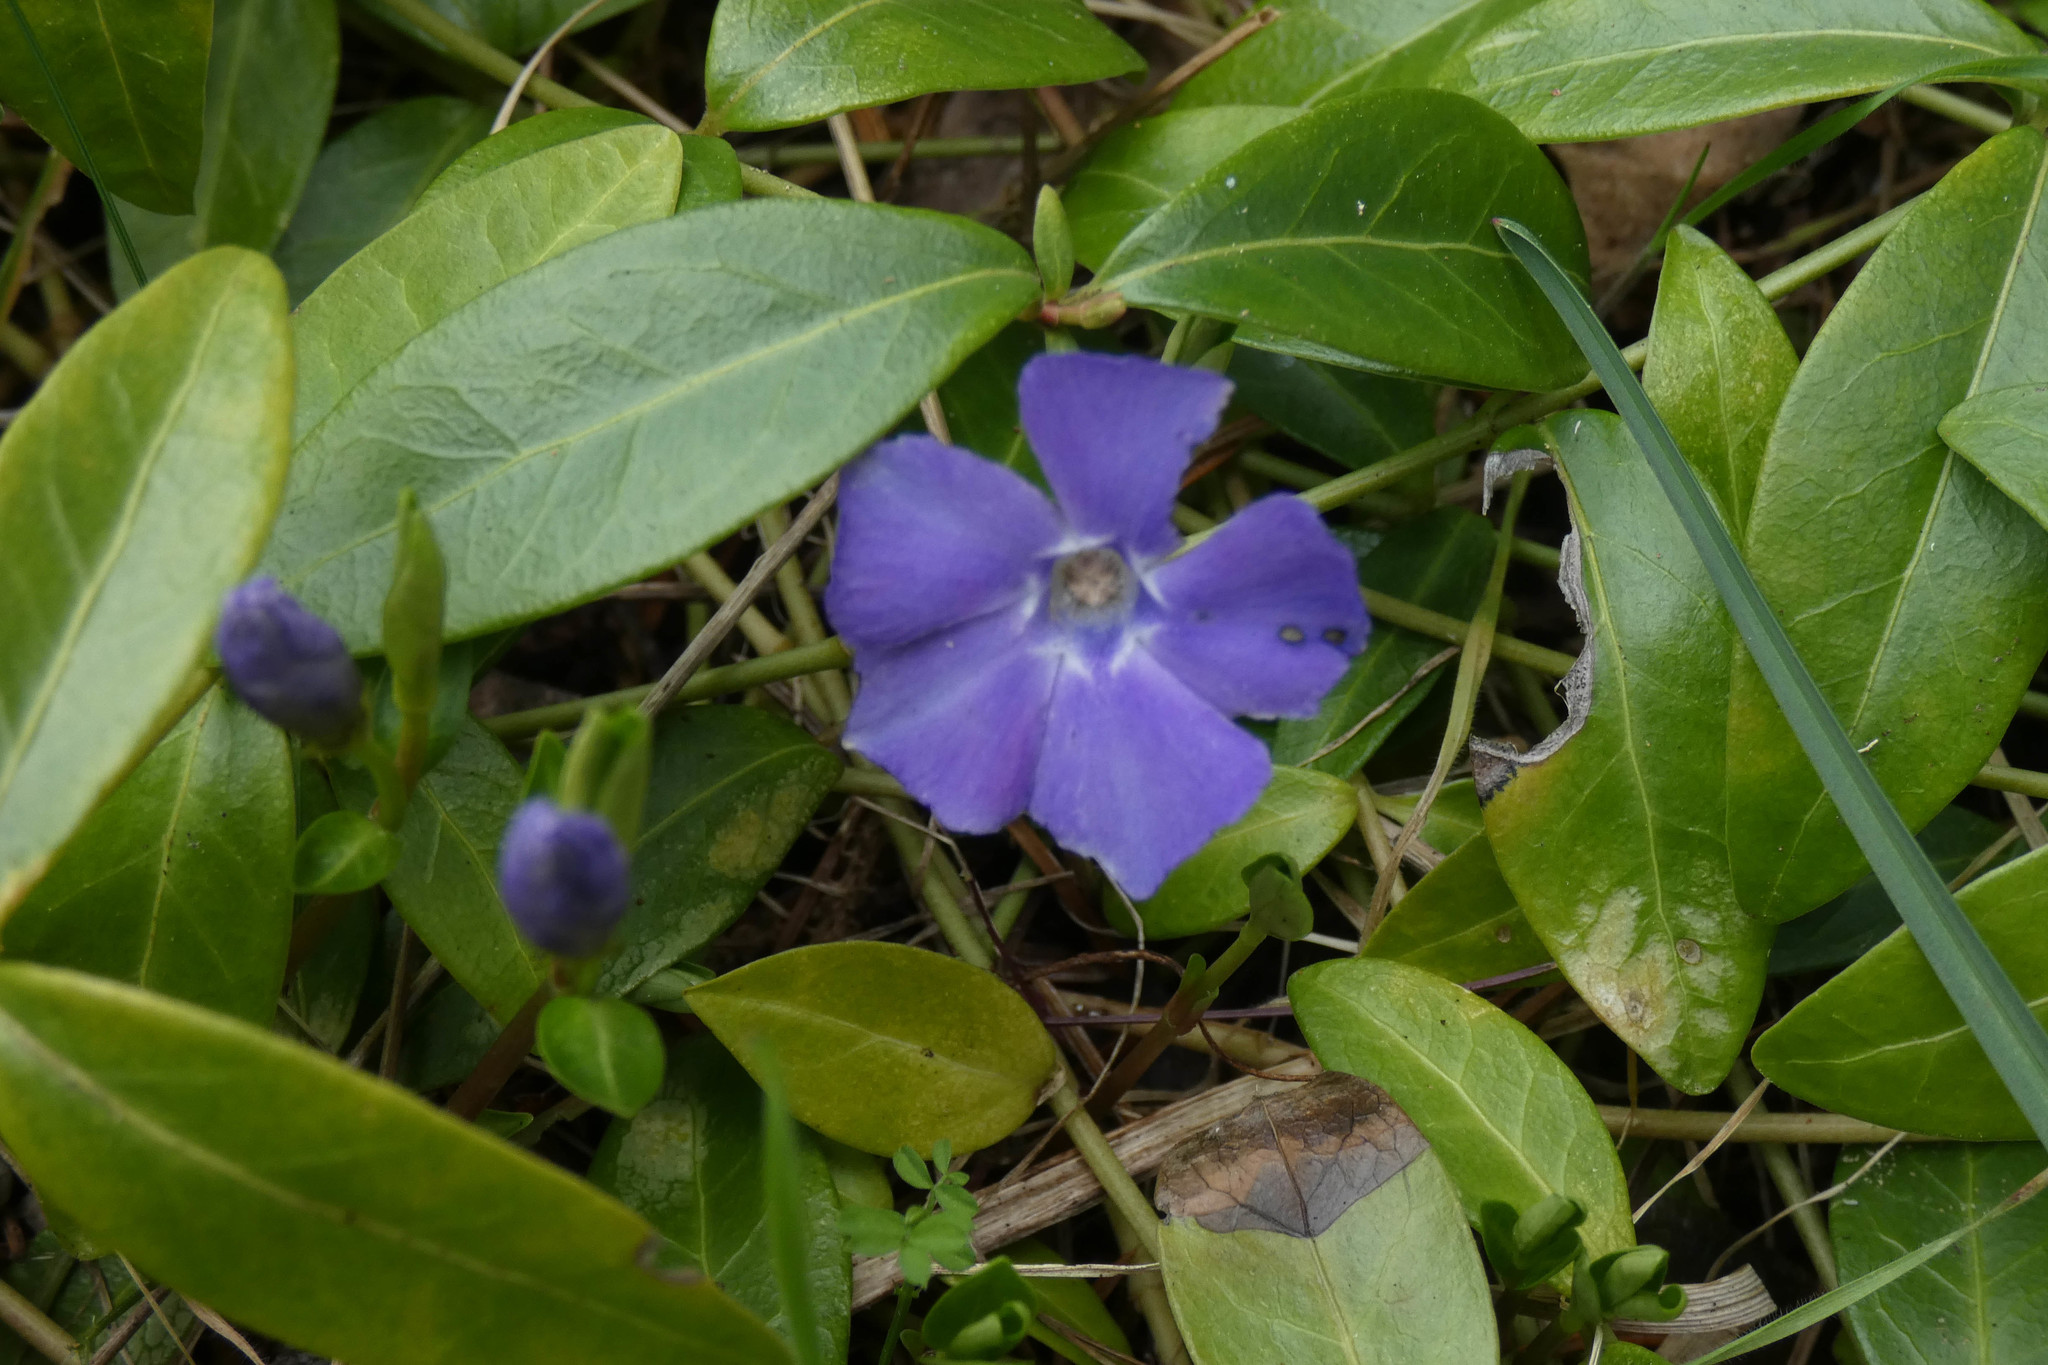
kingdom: Plantae
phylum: Tracheophyta
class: Magnoliopsida
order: Gentianales
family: Apocynaceae
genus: Vinca
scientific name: Vinca minor
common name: Lesser periwinkle
